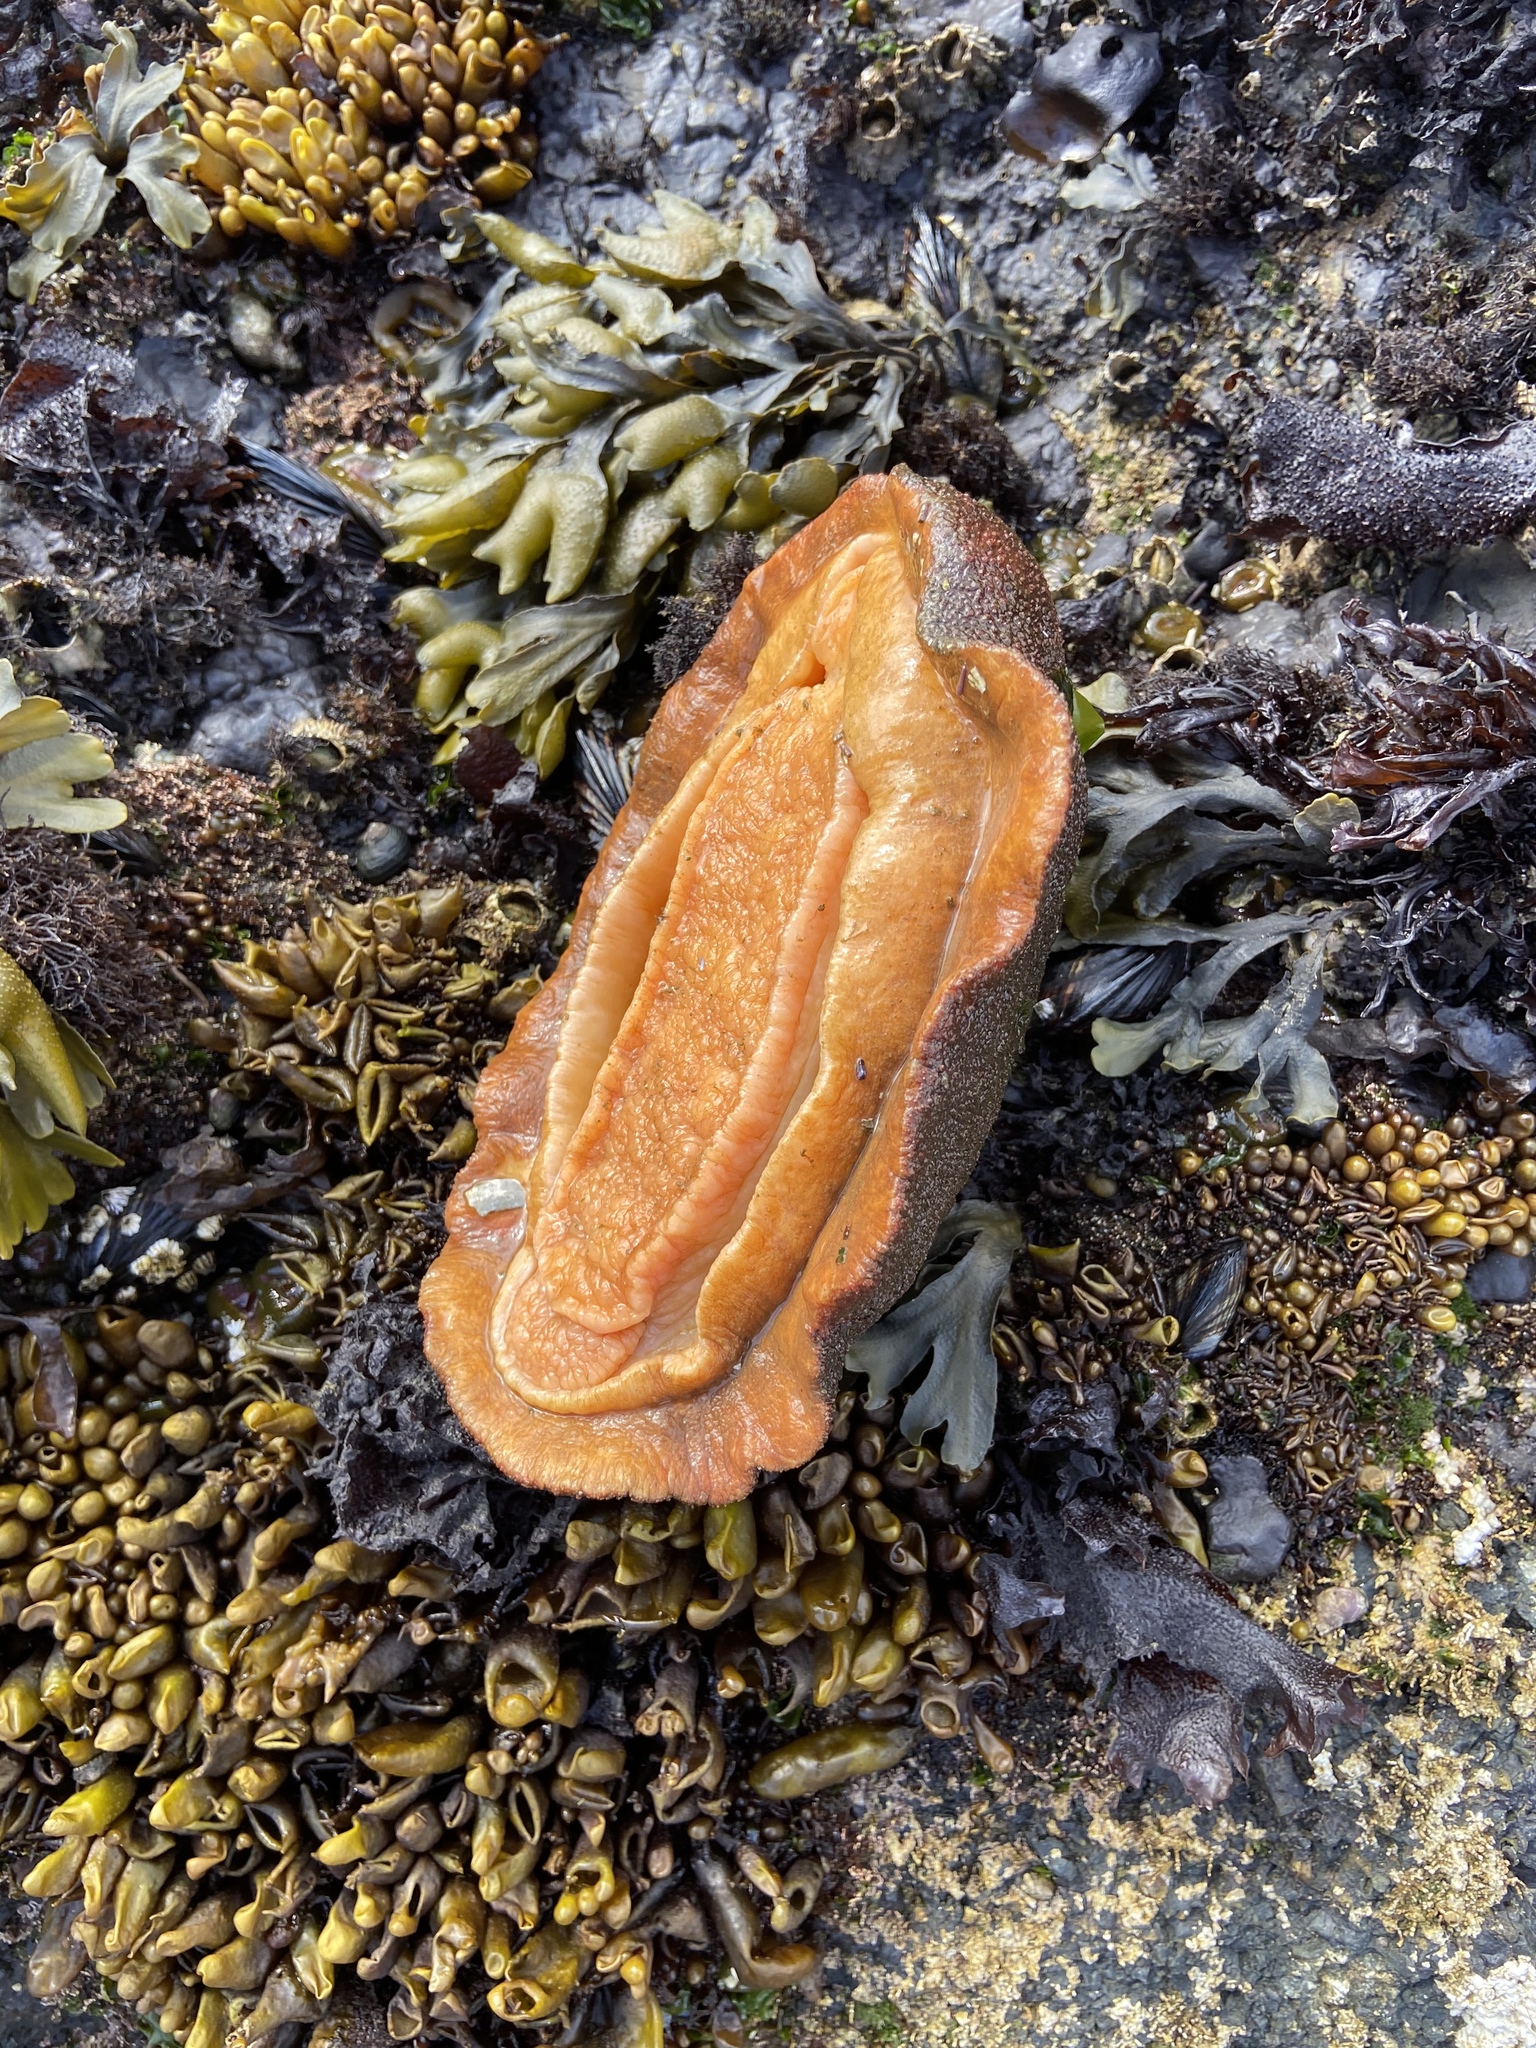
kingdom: Animalia
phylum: Mollusca
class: Polyplacophora
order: Chitonida
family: Acanthochitonidae
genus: Cryptochiton
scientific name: Cryptochiton stelleri
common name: Giant pacific chiton
